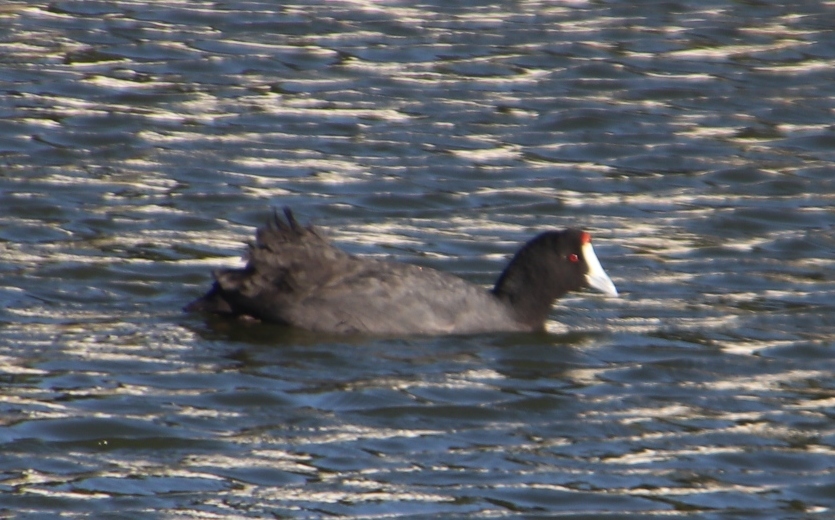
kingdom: Animalia
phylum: Chordata
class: Aves
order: Gruiformes
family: Rallidae
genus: Fulica
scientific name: Fulica cristata
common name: Red-knobbed coot
